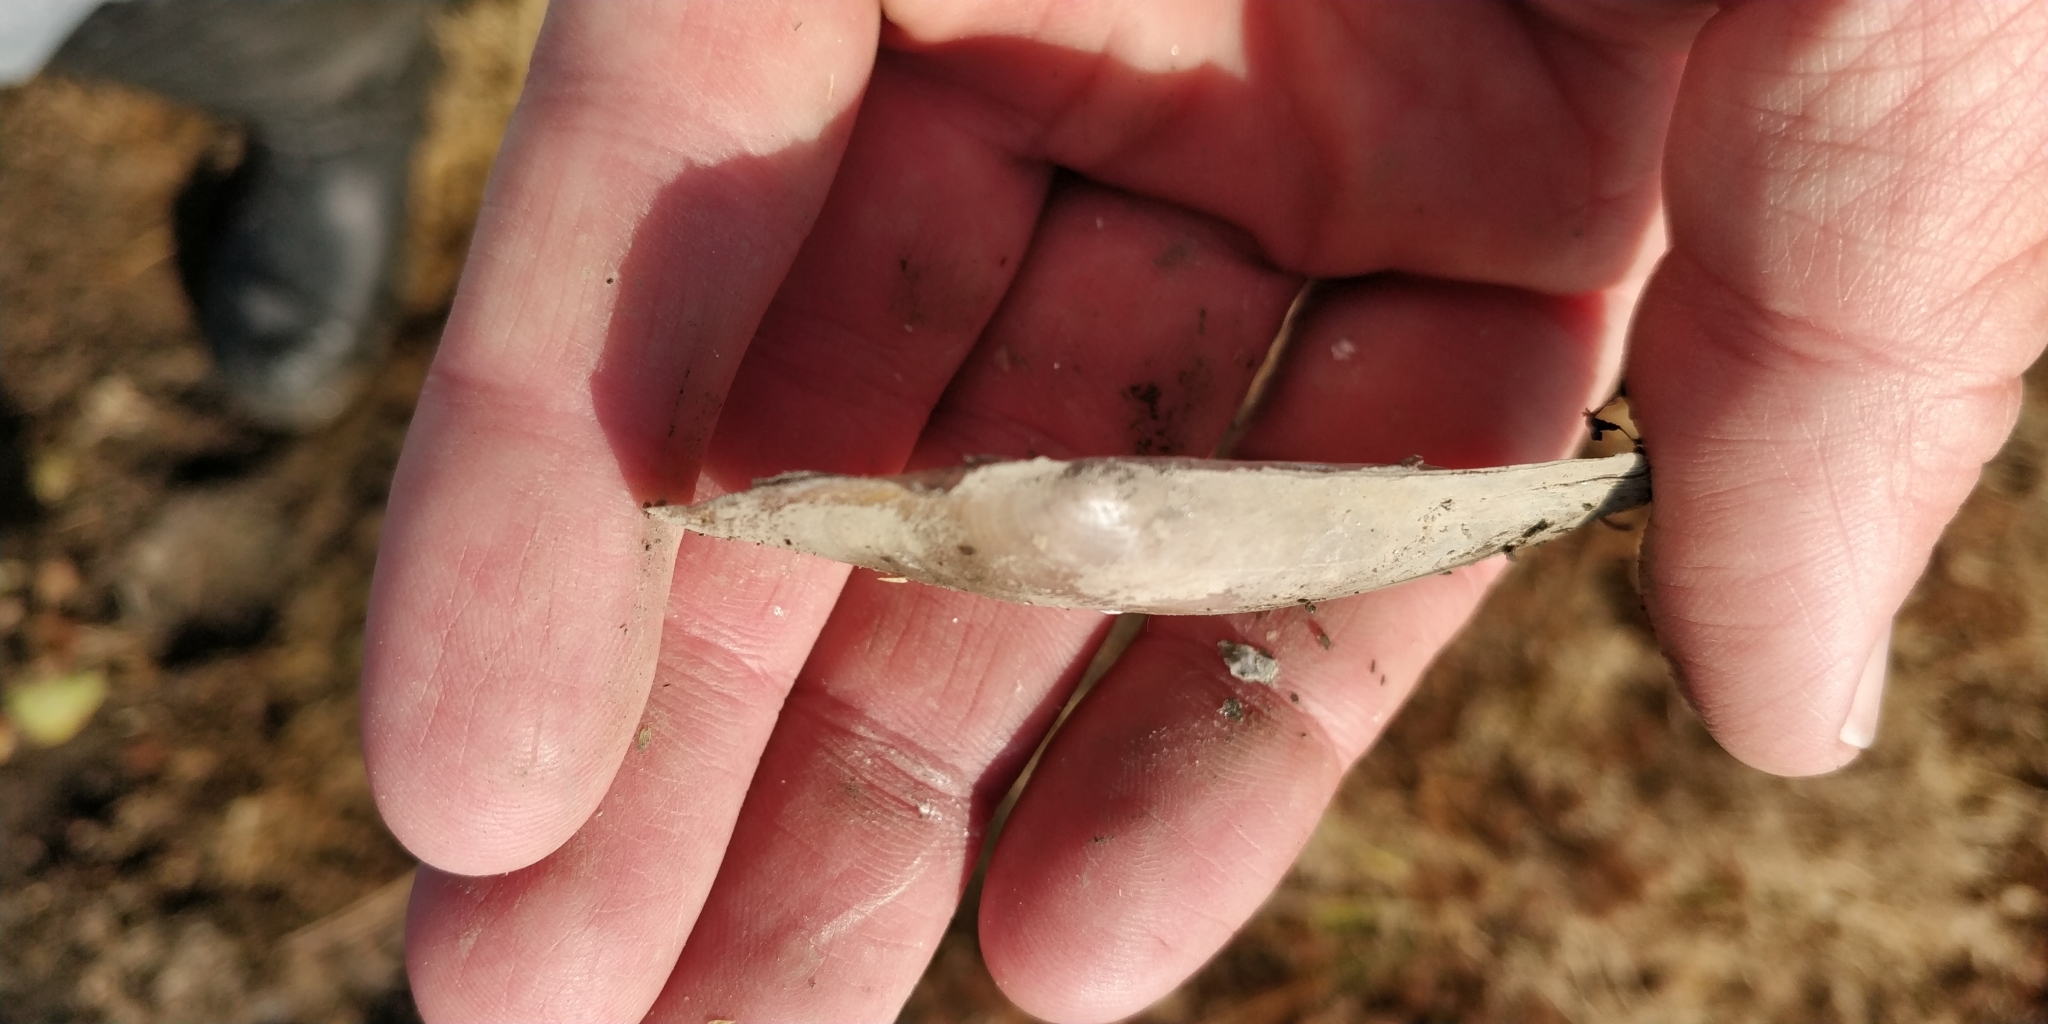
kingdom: Animalia
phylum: Mollusca
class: Bivalvia
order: Unionida
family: Unionidae
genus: Potamilus
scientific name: Potamilus ohiensis
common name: Pink papershell
